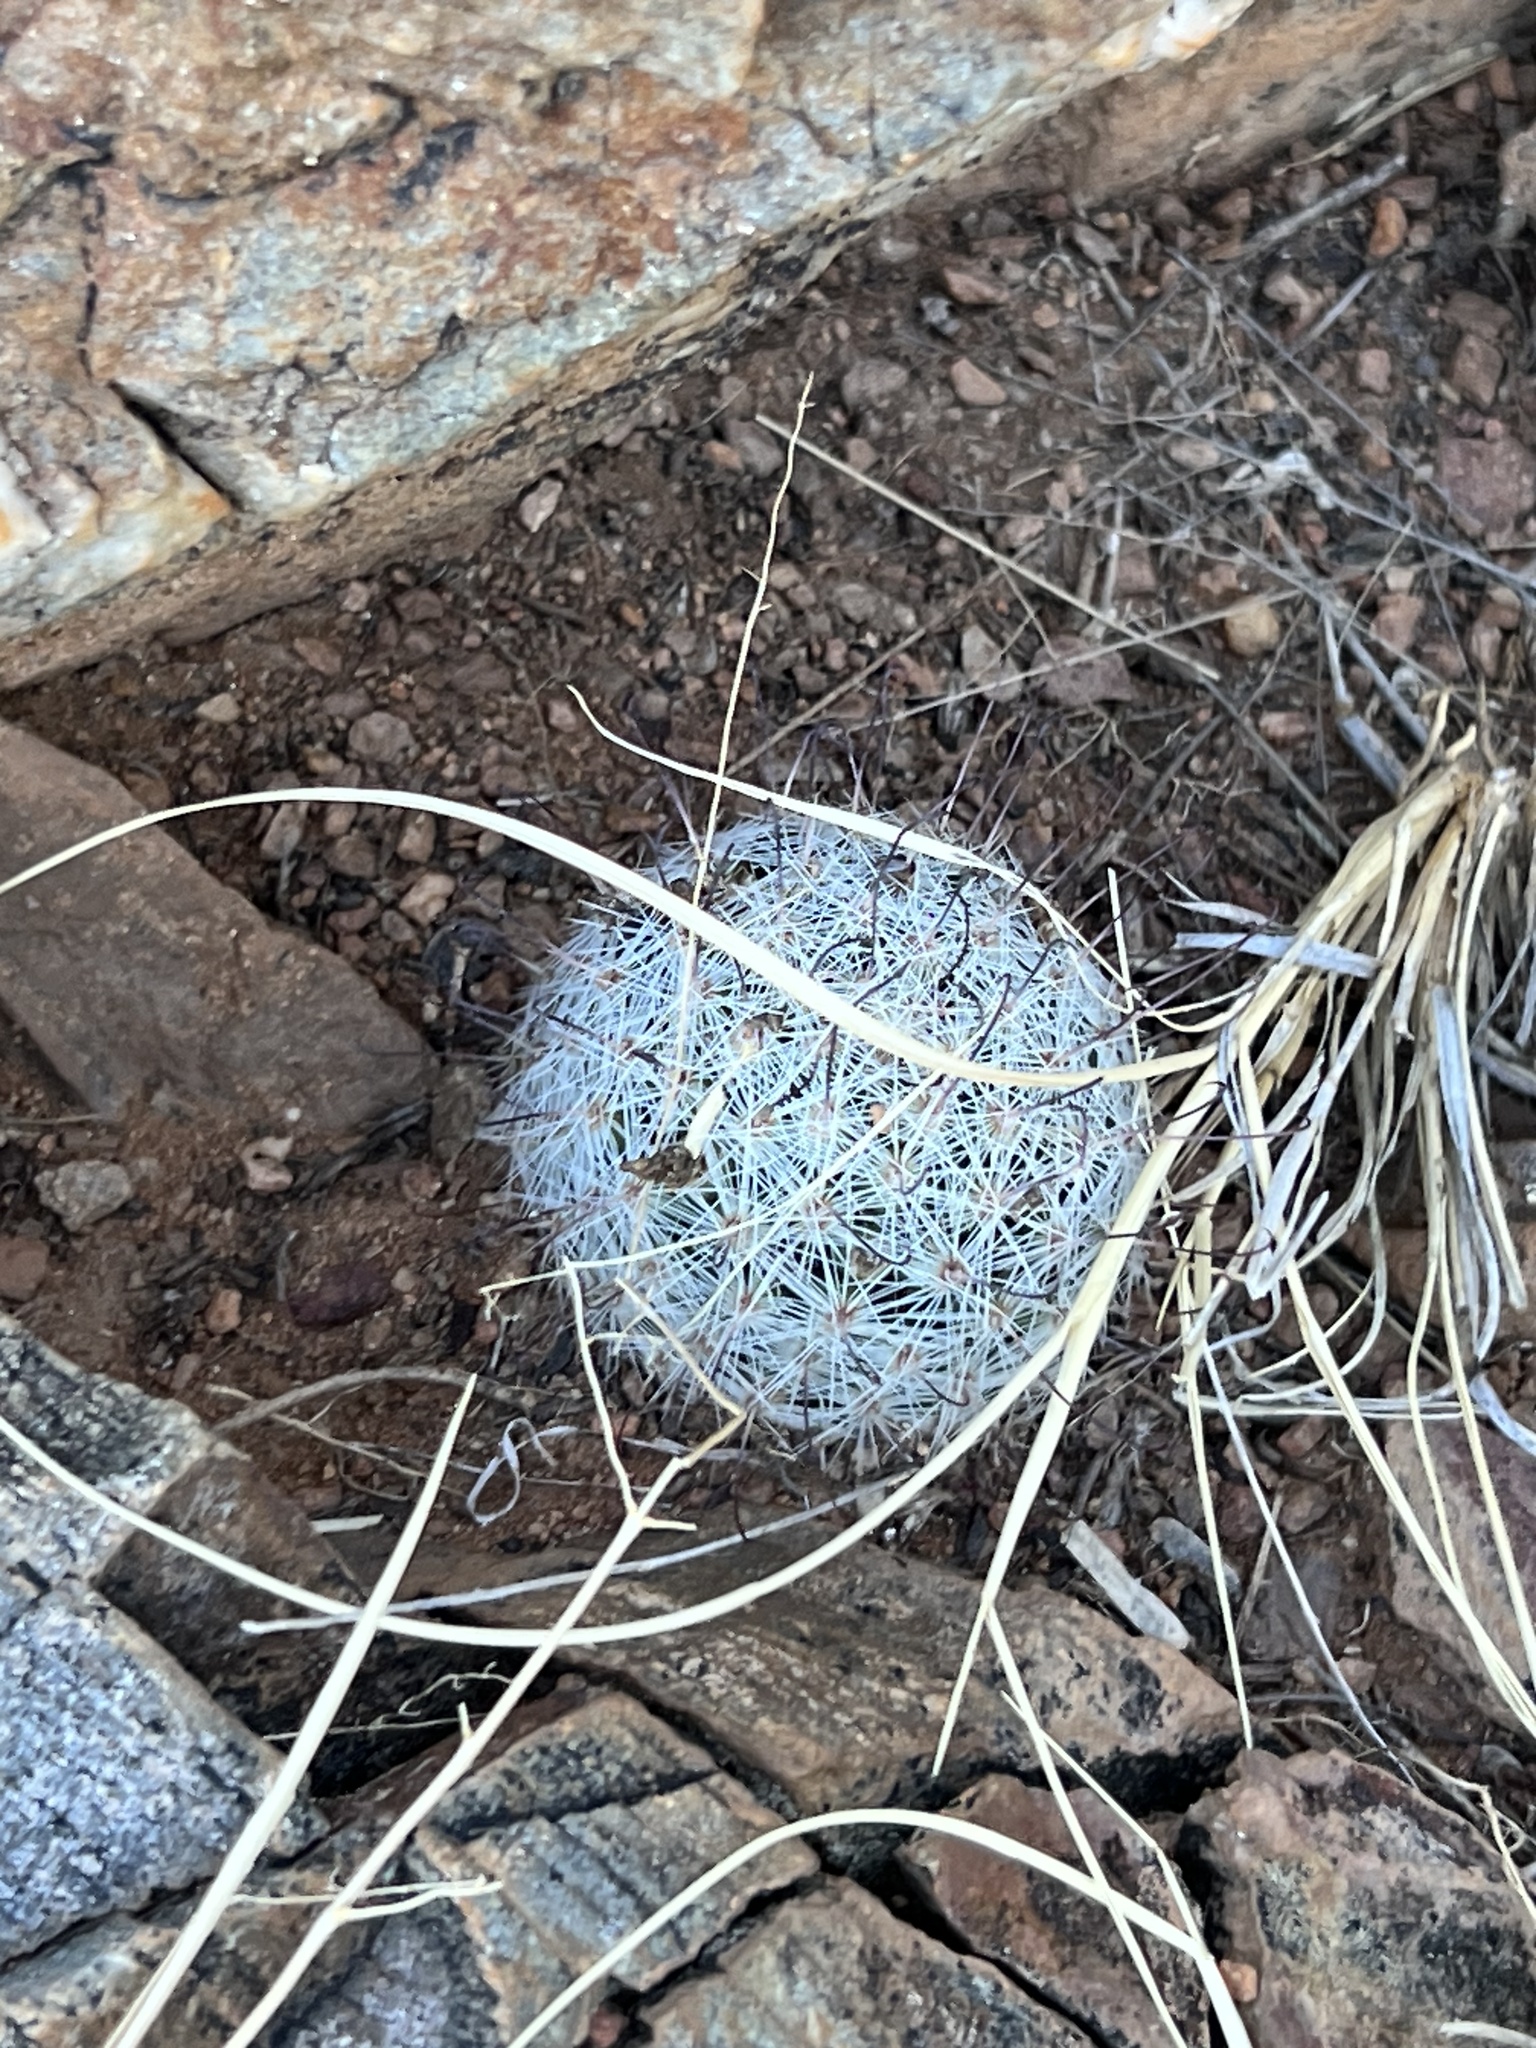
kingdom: Plantae
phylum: Tracheophyta
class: Magnoliopsida
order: Caryophyllales
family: Cactaceae
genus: Cochemiea
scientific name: Cochemiea grahamii
